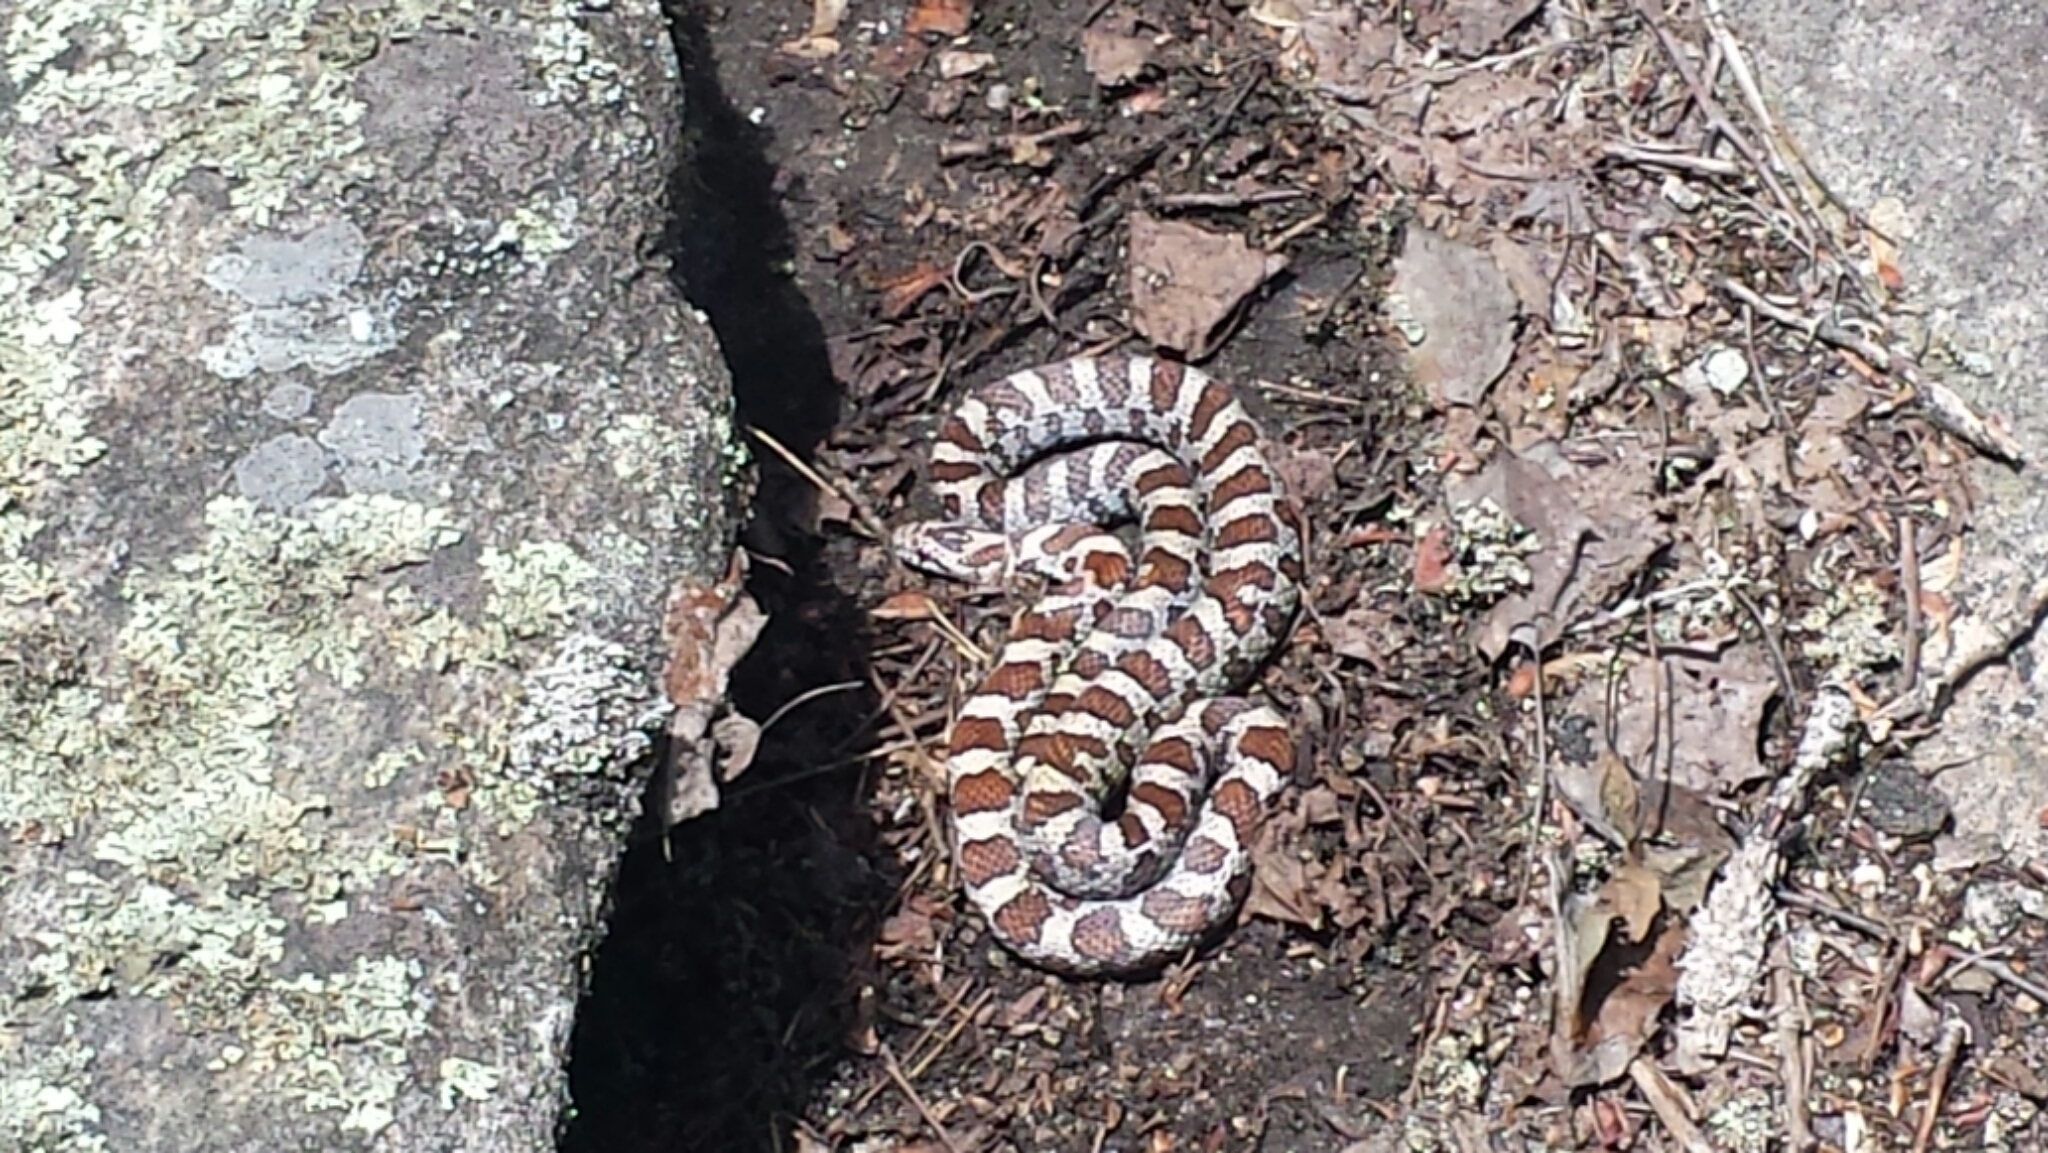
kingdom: Animalia
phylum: Chordata
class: Squamata
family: Colubridae
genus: Lampropeltis
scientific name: Lampropeltis triangulum
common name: Eastern milksnake
